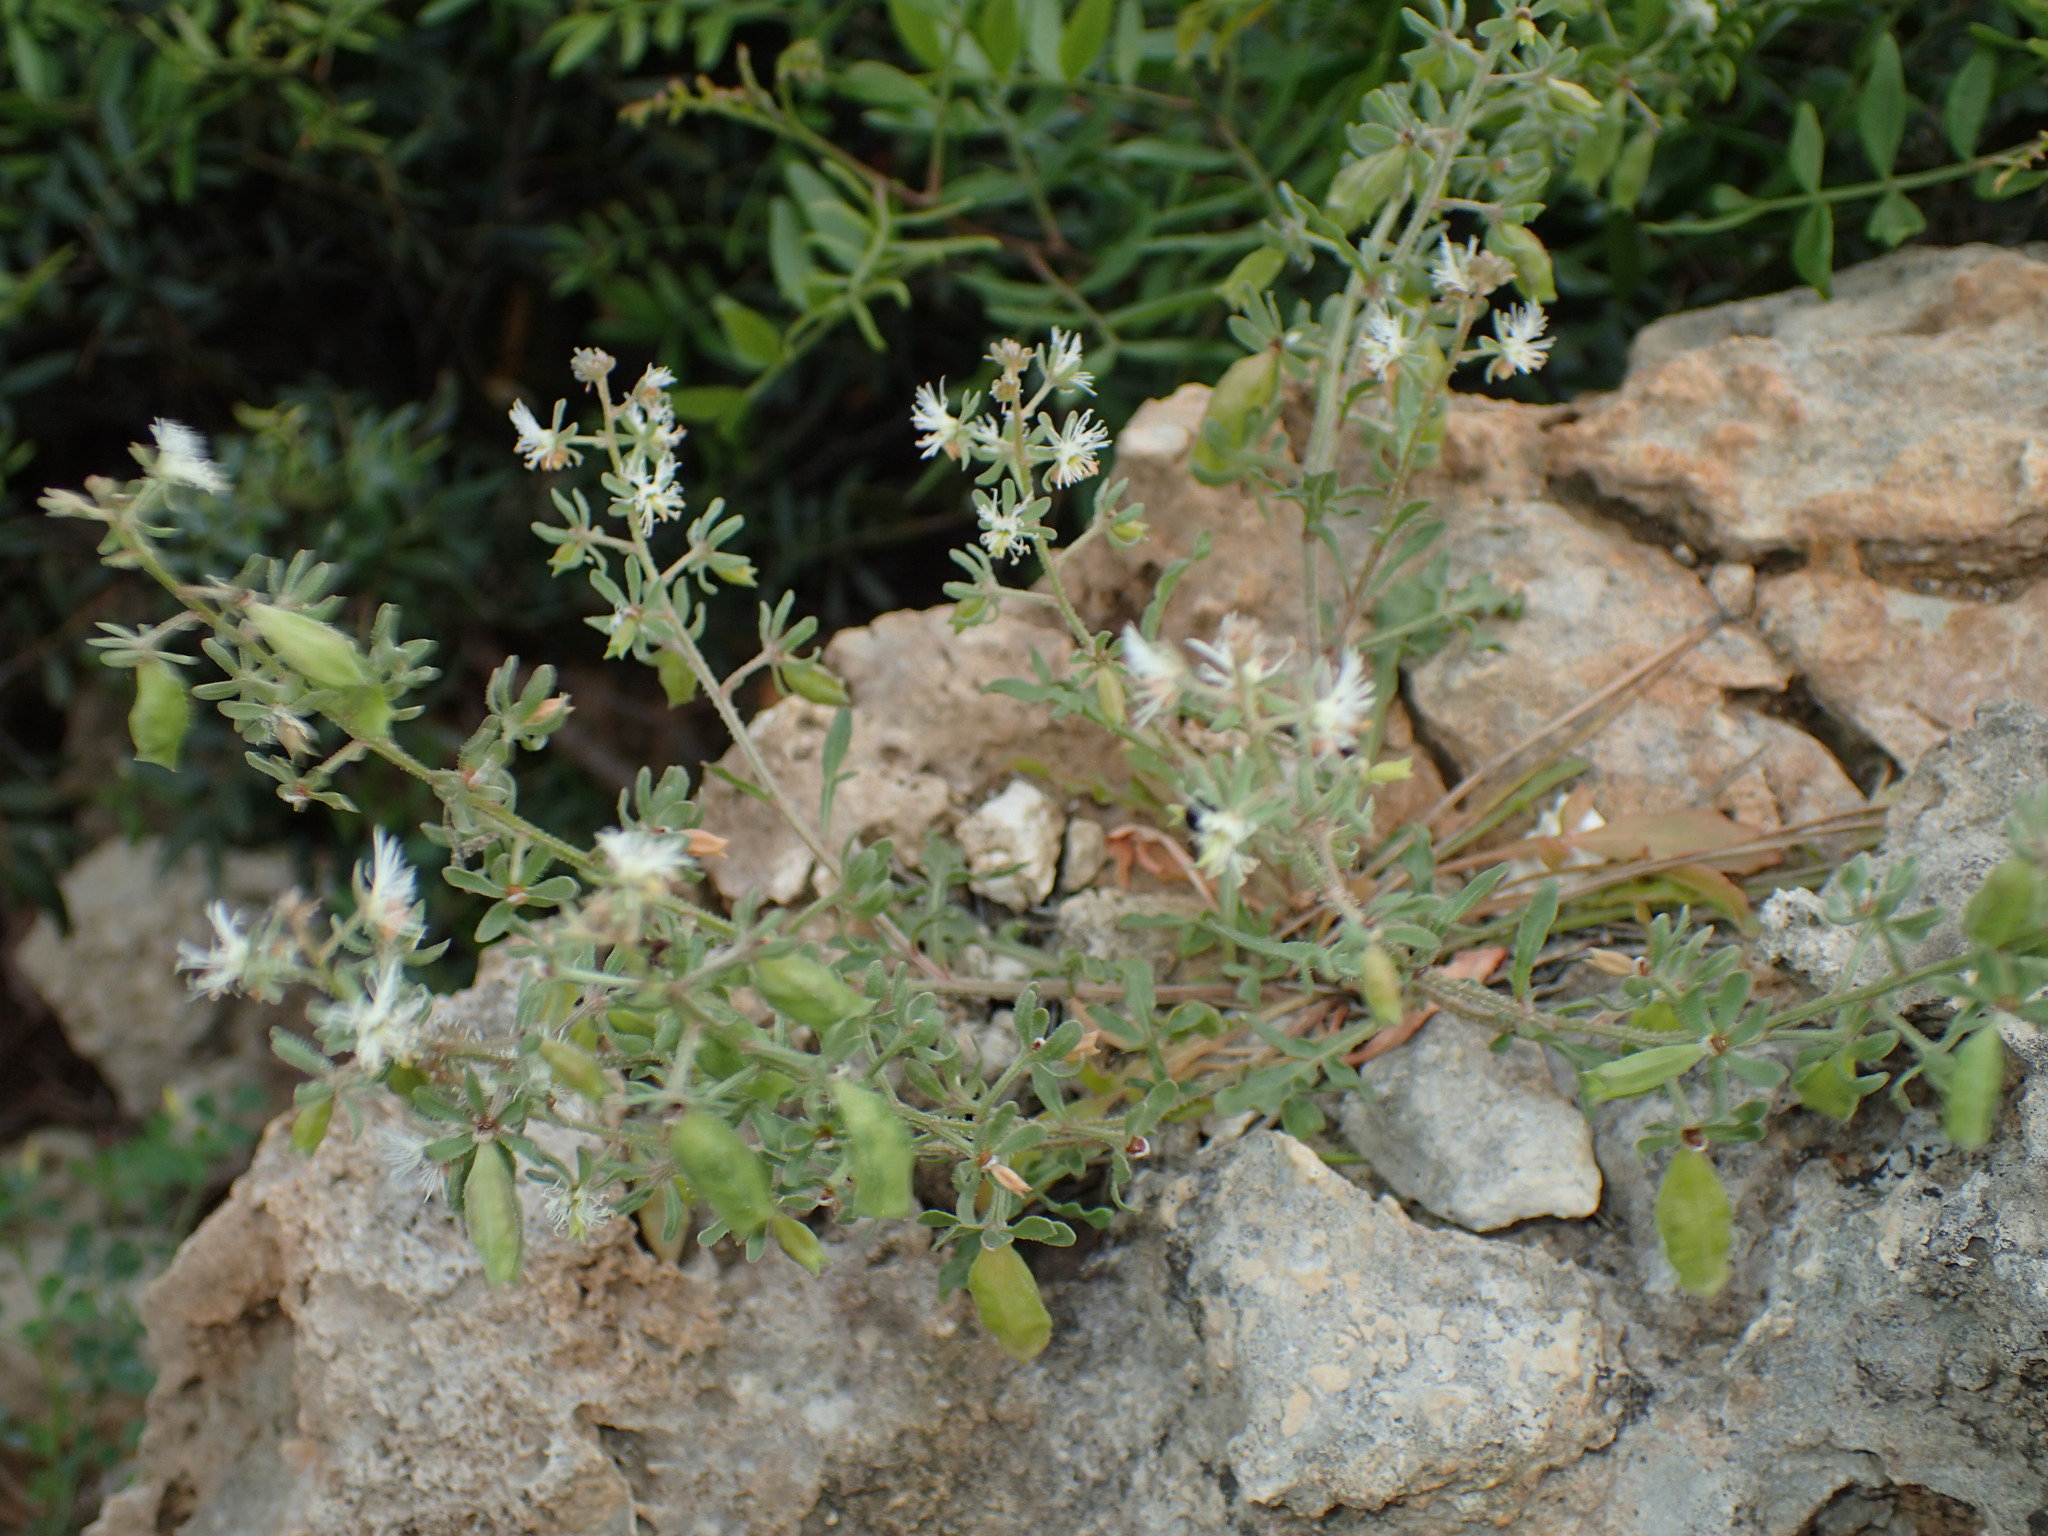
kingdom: Plantae
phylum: Tracheophyta
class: Magnoliopsida
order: Brassicales
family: Resedaceae
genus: Reseda
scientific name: Reseda phyteuma
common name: Corn mignonette
